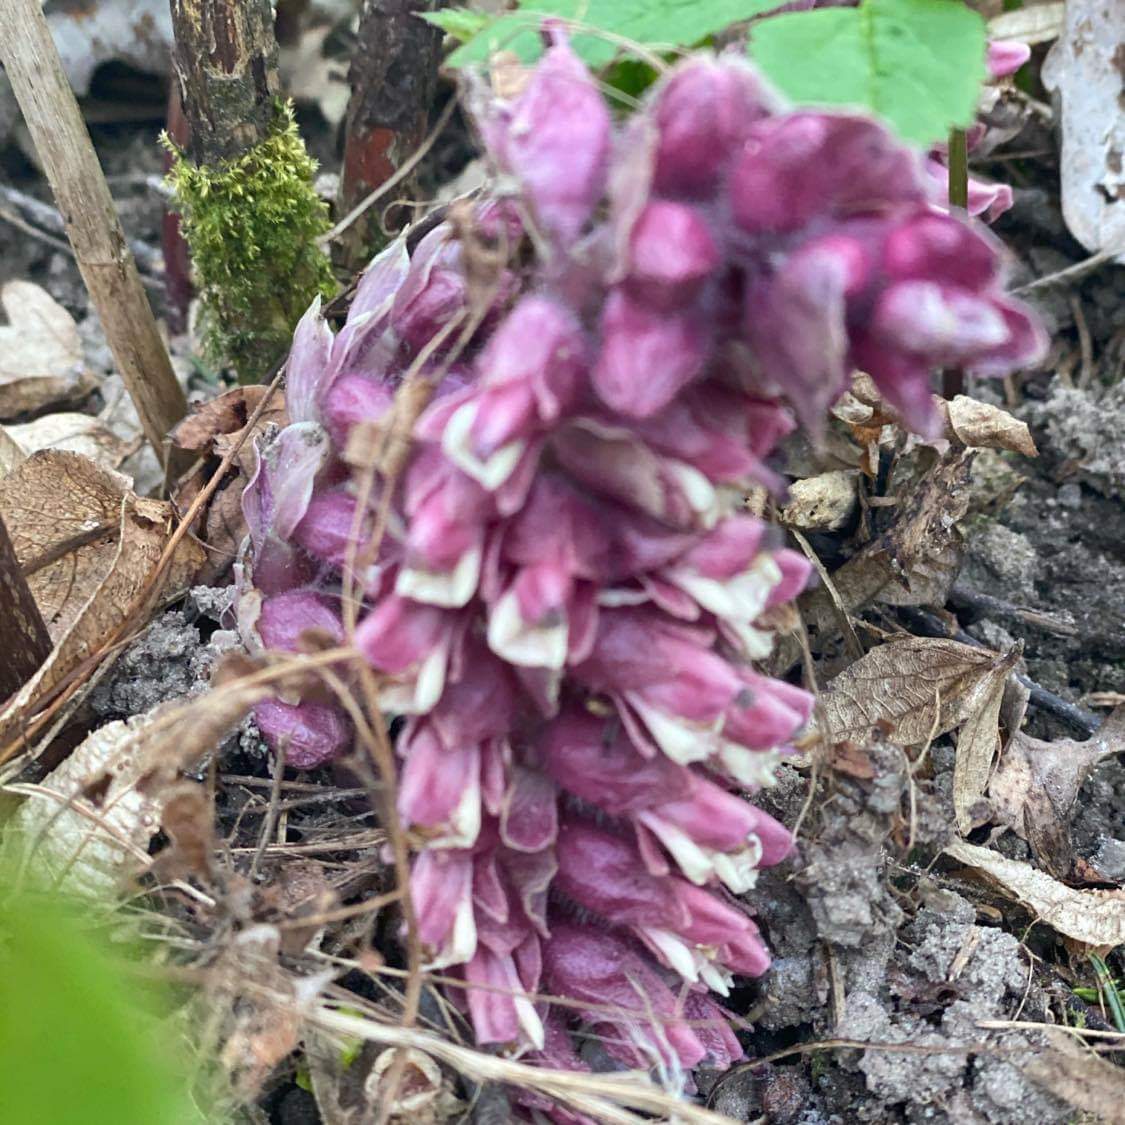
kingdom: Plantae
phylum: Tracheophyta
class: Magnoliopsida
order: Lamiales
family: Orobanchaceae
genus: Lathraea
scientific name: Lathraea squamaria
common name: Toothwort
